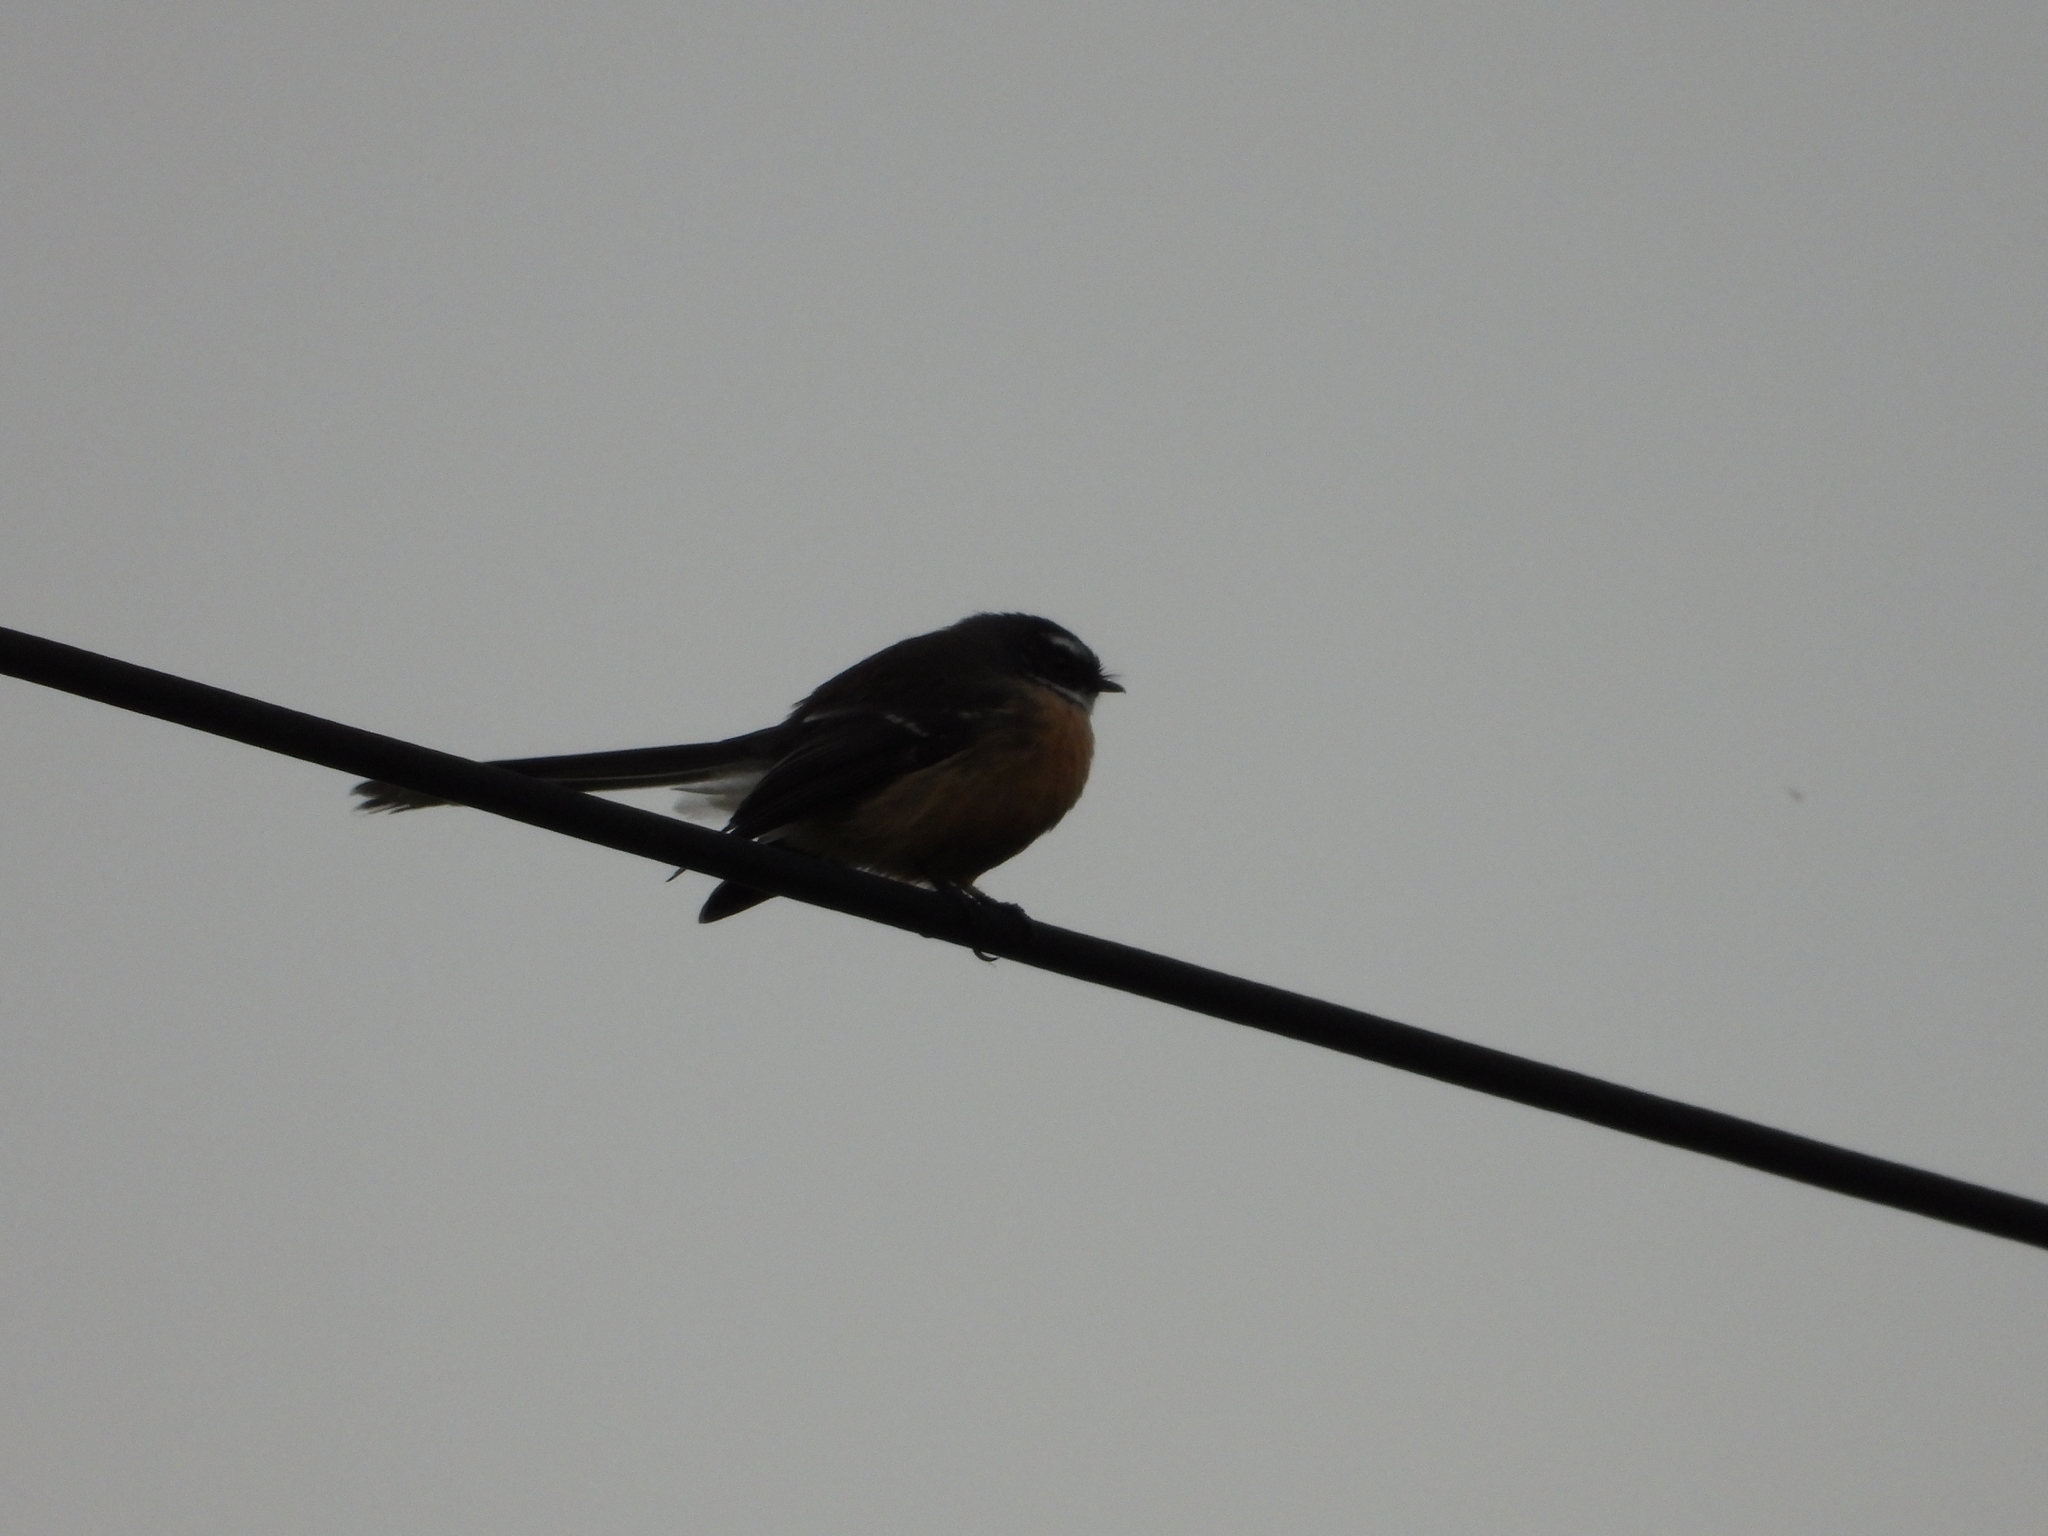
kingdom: Animalia
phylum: Chordata
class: Aves
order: Passeriformes
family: Rhipiduridae
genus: Rhipidura
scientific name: Rhipidura fuliginosa
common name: New zealand fantail
